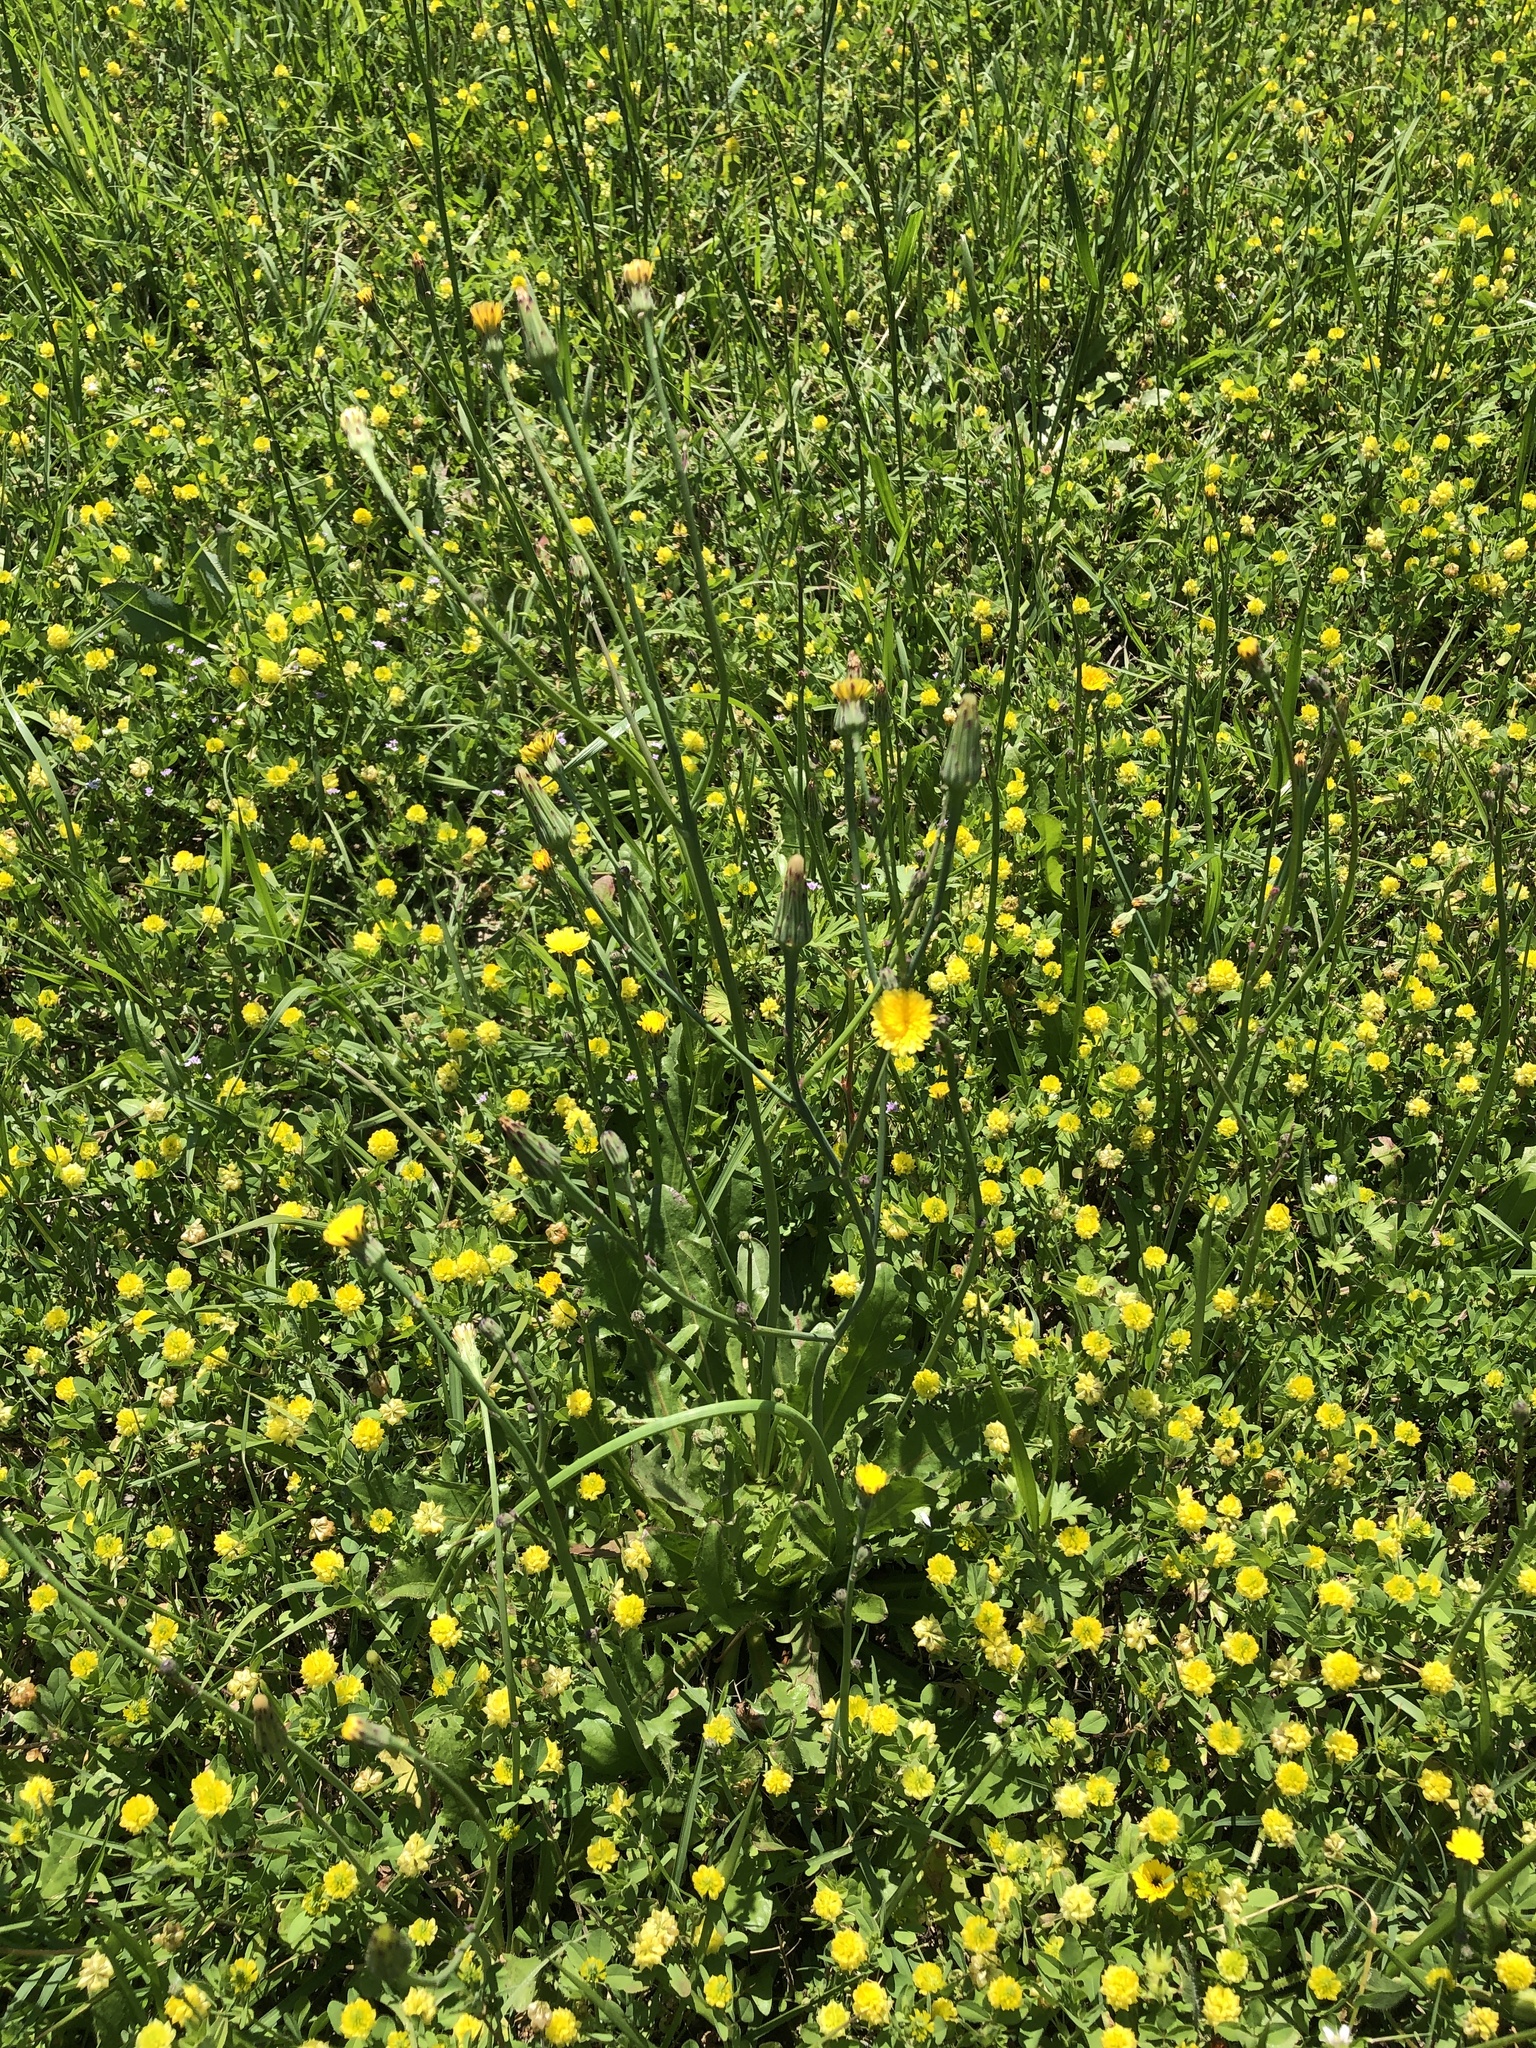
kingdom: Plantae
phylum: Tracheophyta
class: Magnoliopsida
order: Asterales
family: Asteraceae
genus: Hypochaeris
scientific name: Hypochaeris glabra
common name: Smooth catsear
